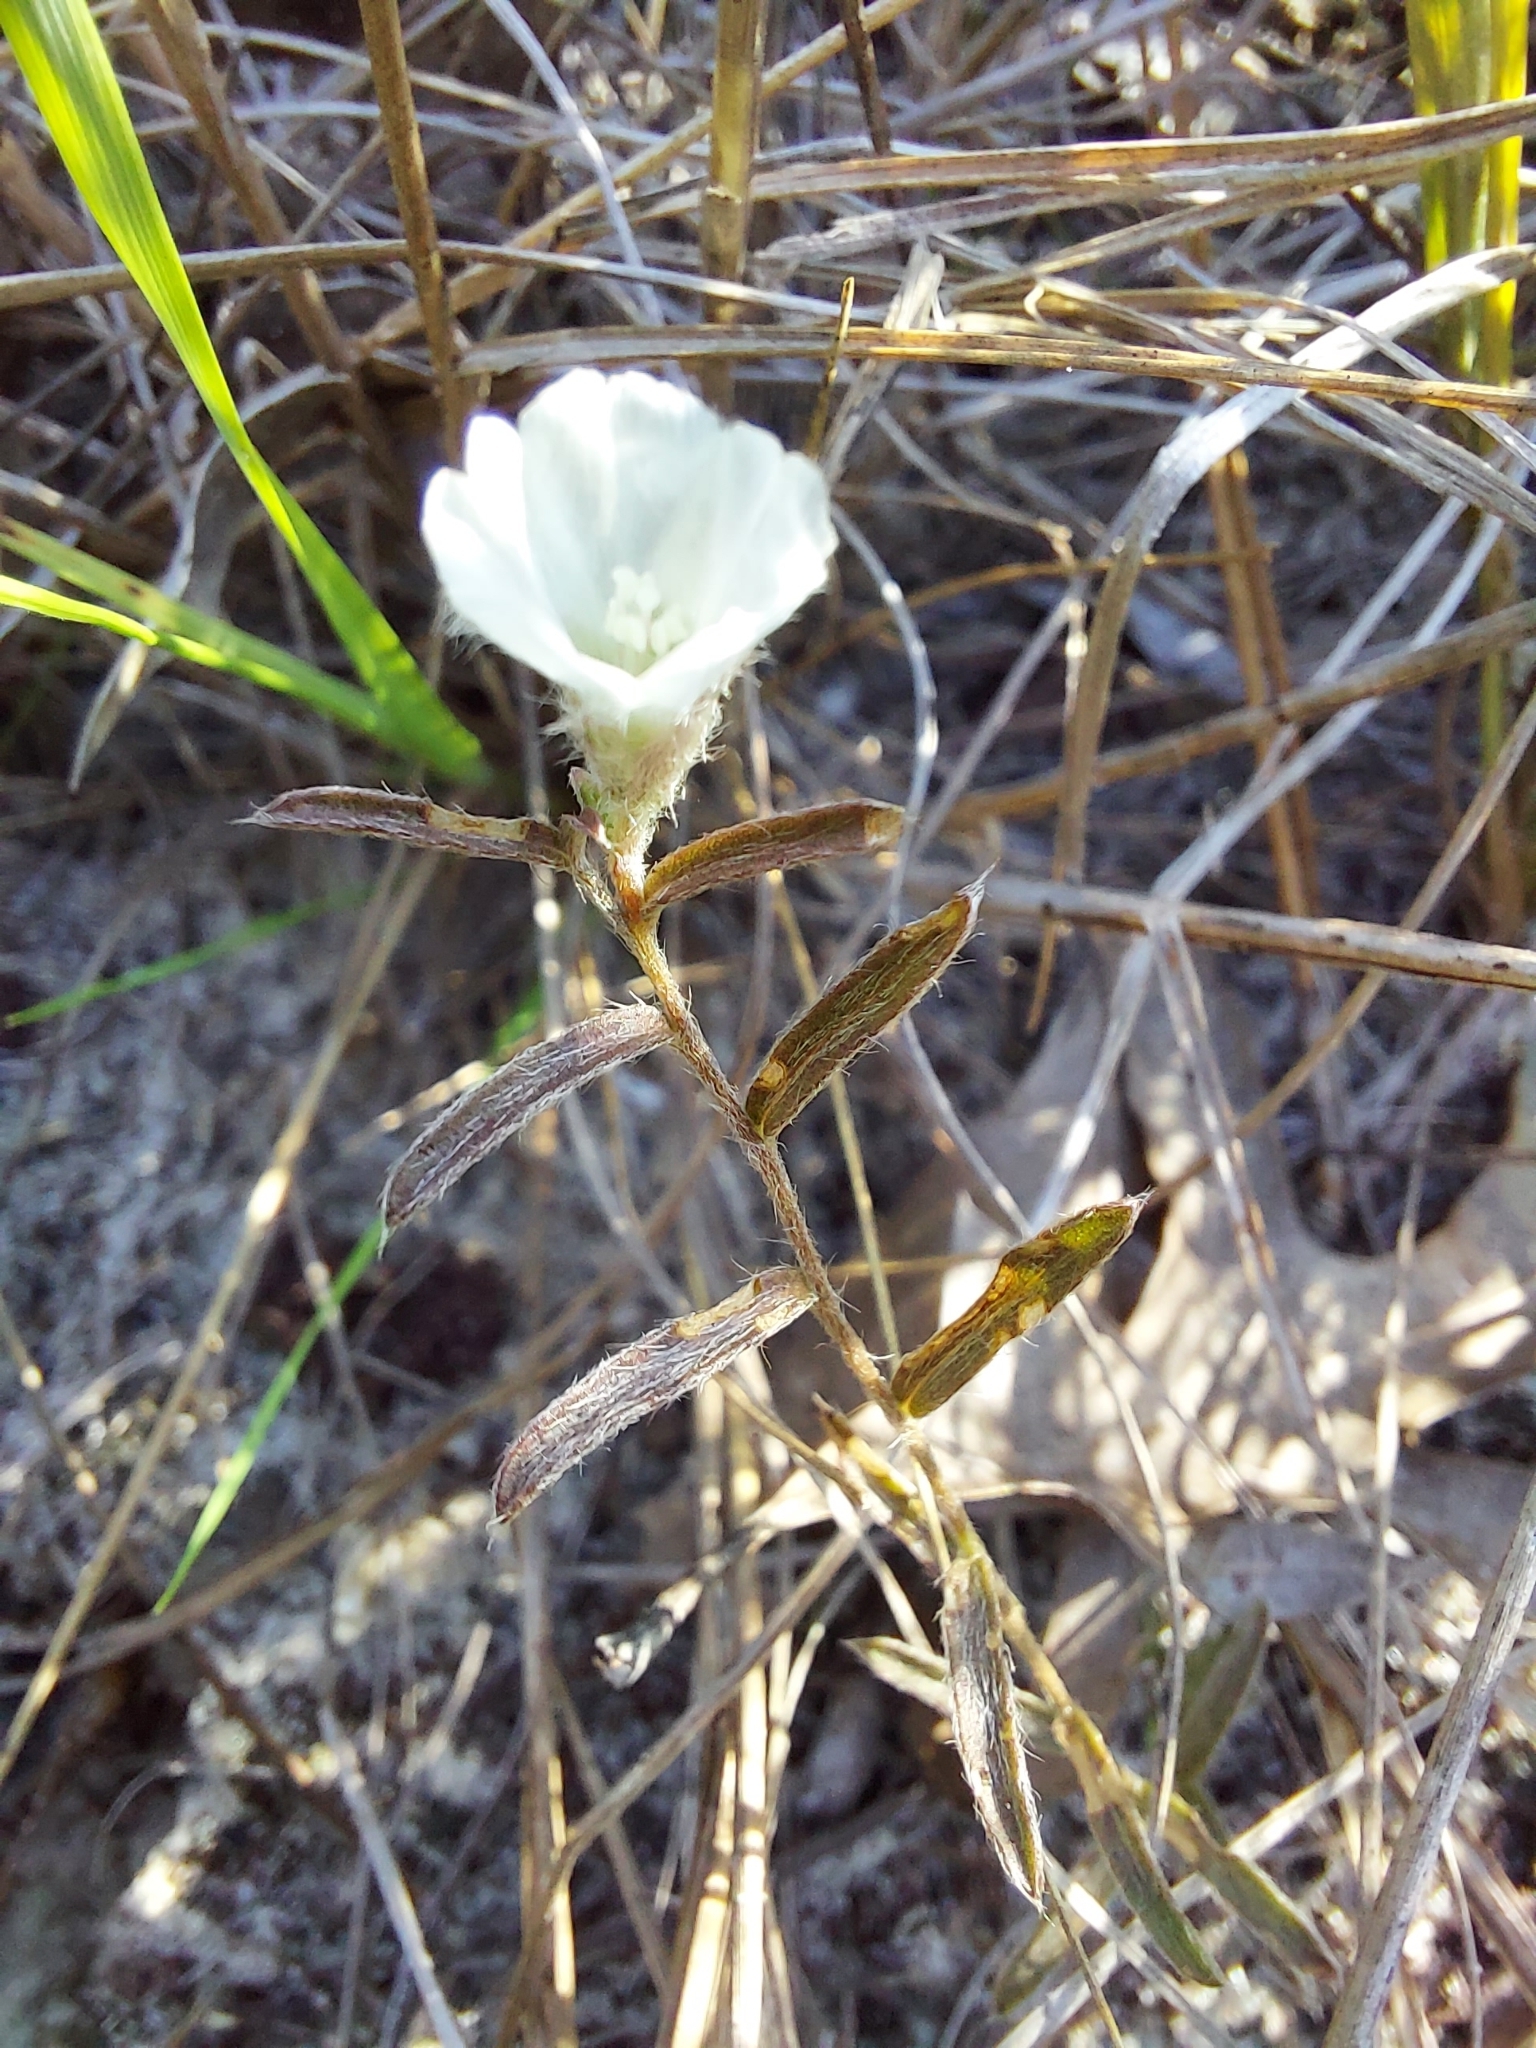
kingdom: Plantae
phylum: Tracheophyta
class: Magnoliopsida
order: Solanales
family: Convolvulaceae
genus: Stylisma
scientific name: Stylisma abdita
